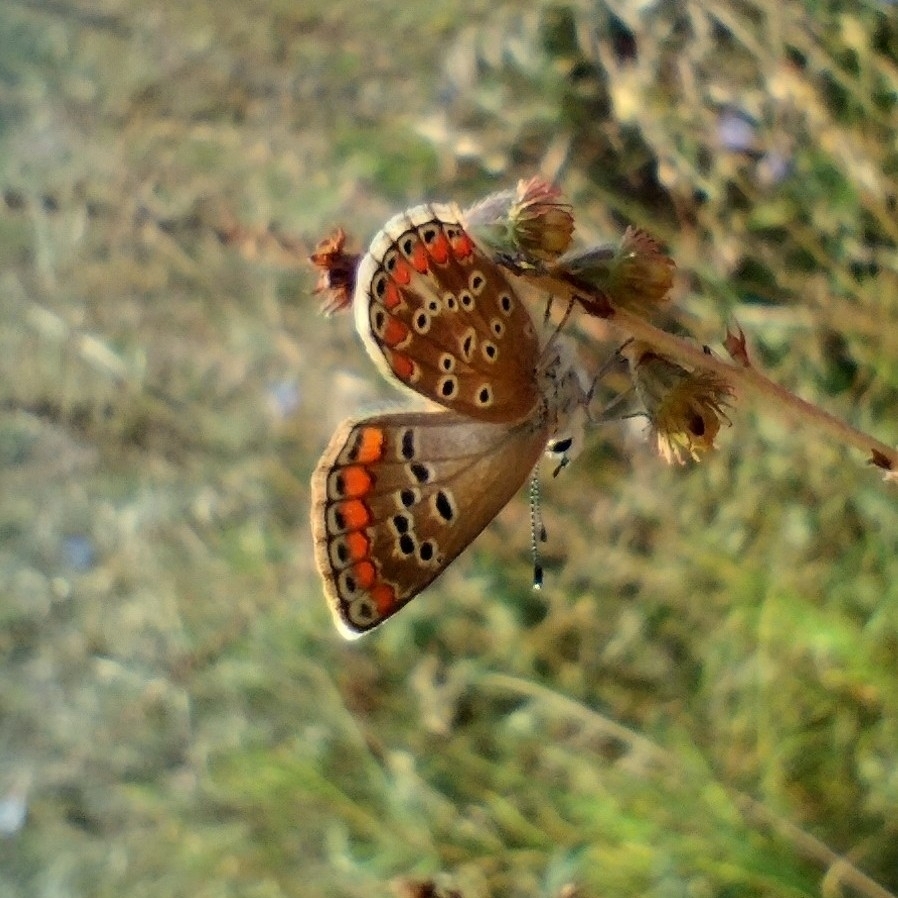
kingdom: Animalia
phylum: Arthropoda
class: Insecta
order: Lepidoptera
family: Lycaenidae
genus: Aricia
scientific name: Aricia agestis
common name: Brown argus
